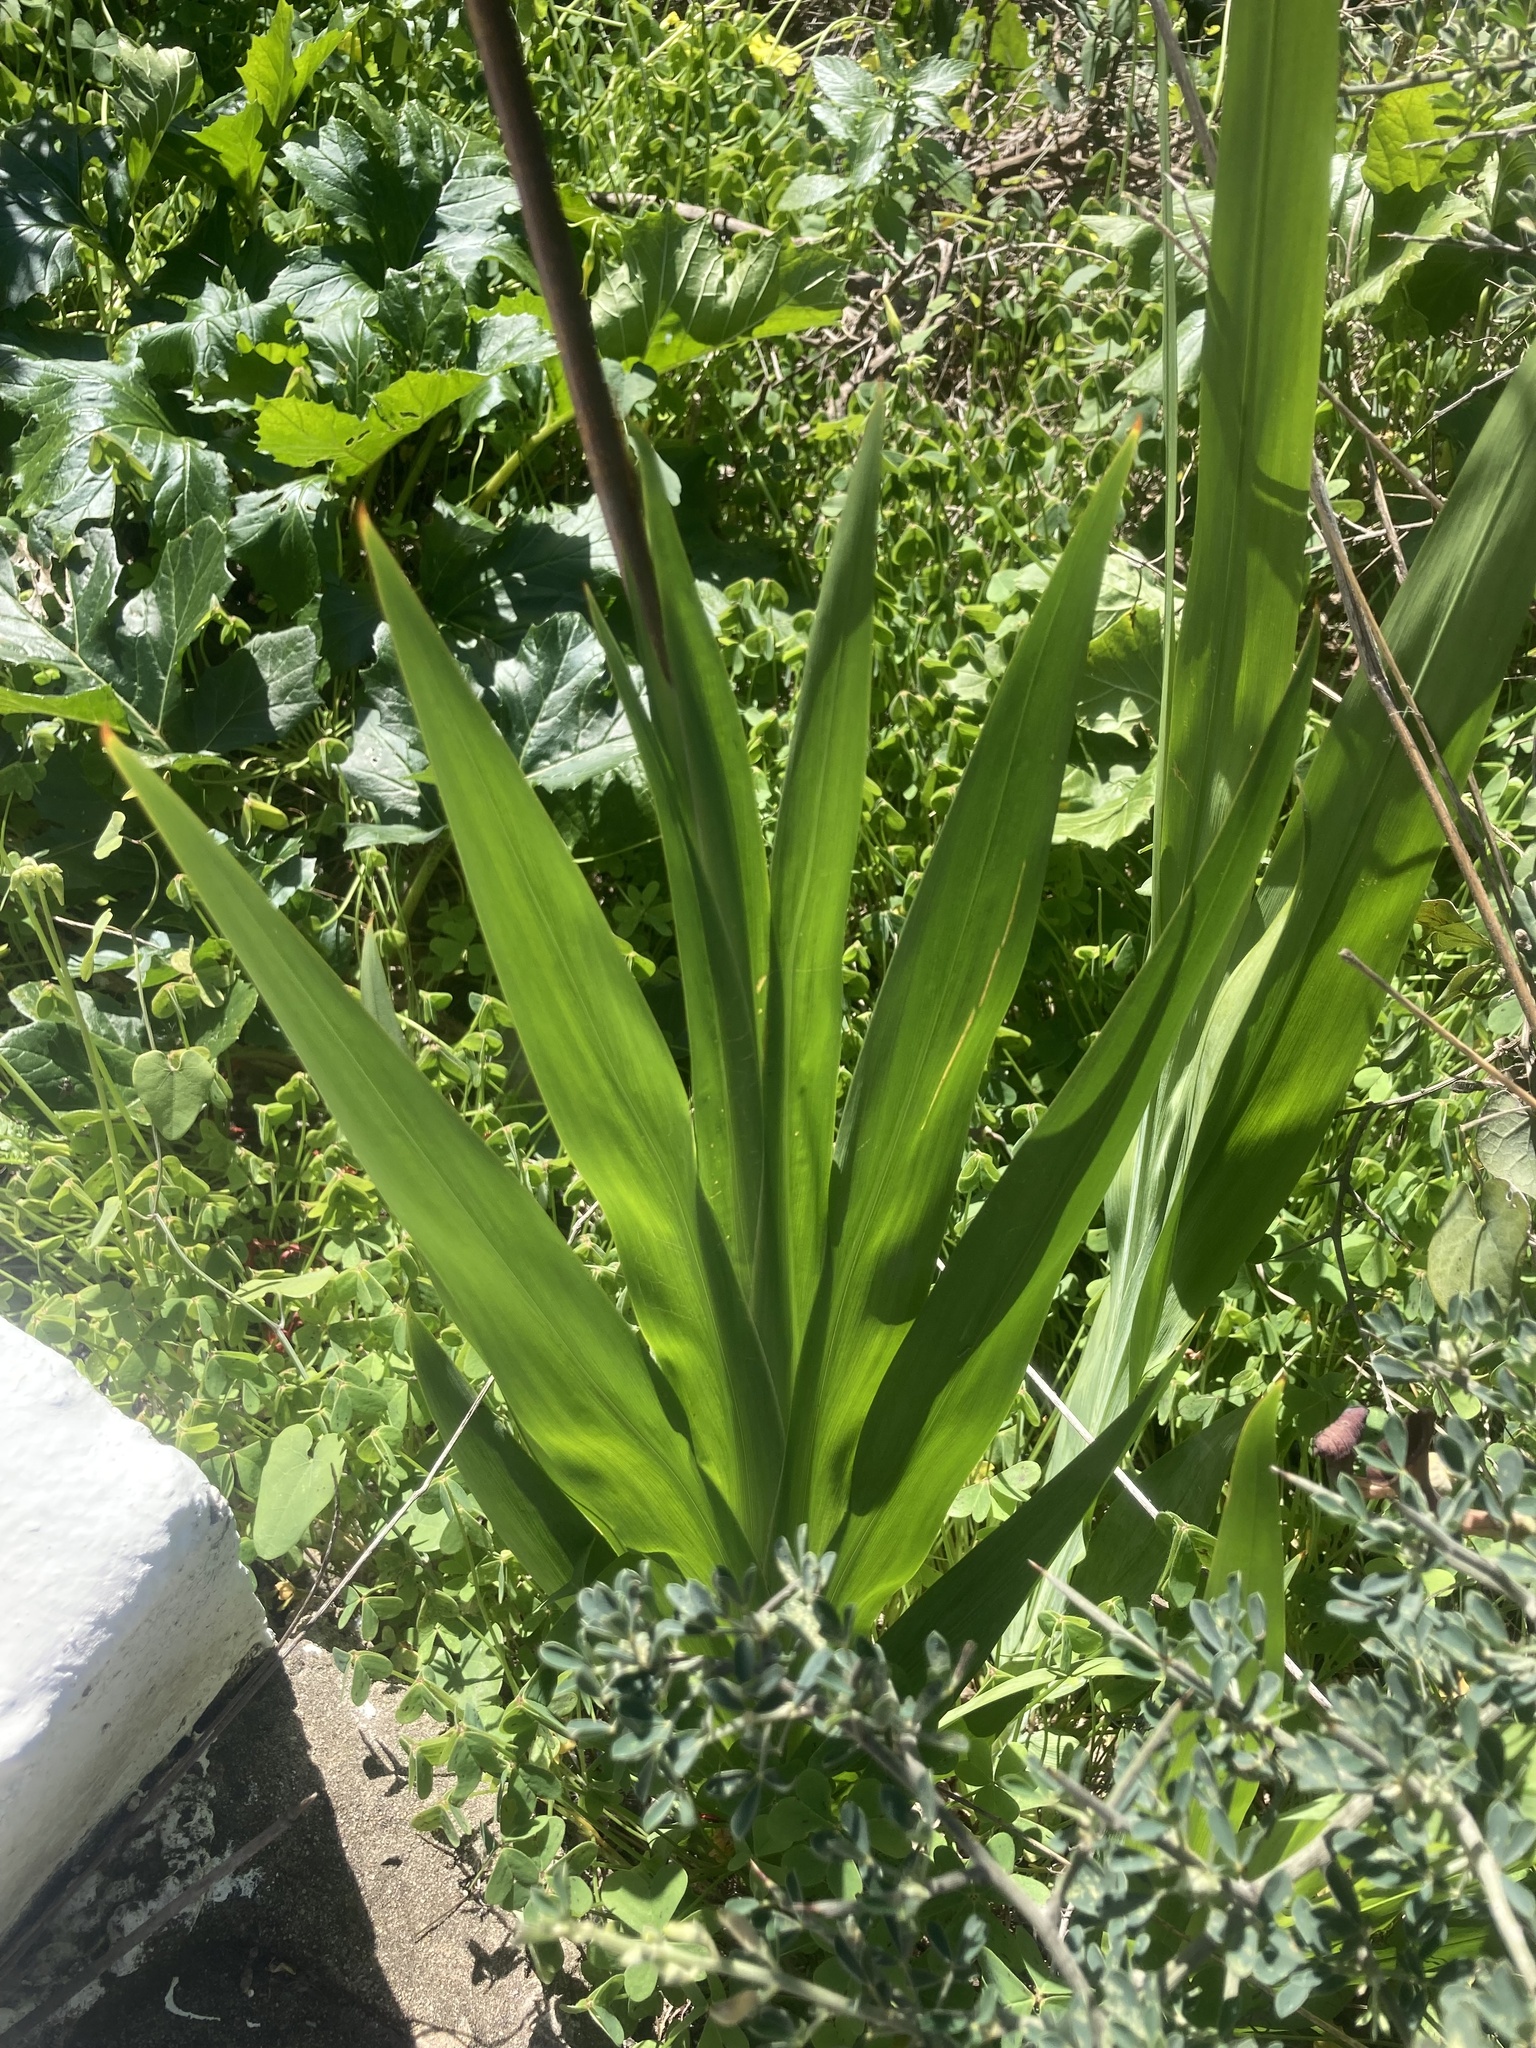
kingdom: Plantae
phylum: Tracheophyta
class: Liliopsida
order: Asparagales
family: Iridaceae
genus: Chasmanthe
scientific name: Chasmanthe bicolor
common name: Bicolor cobra lily
